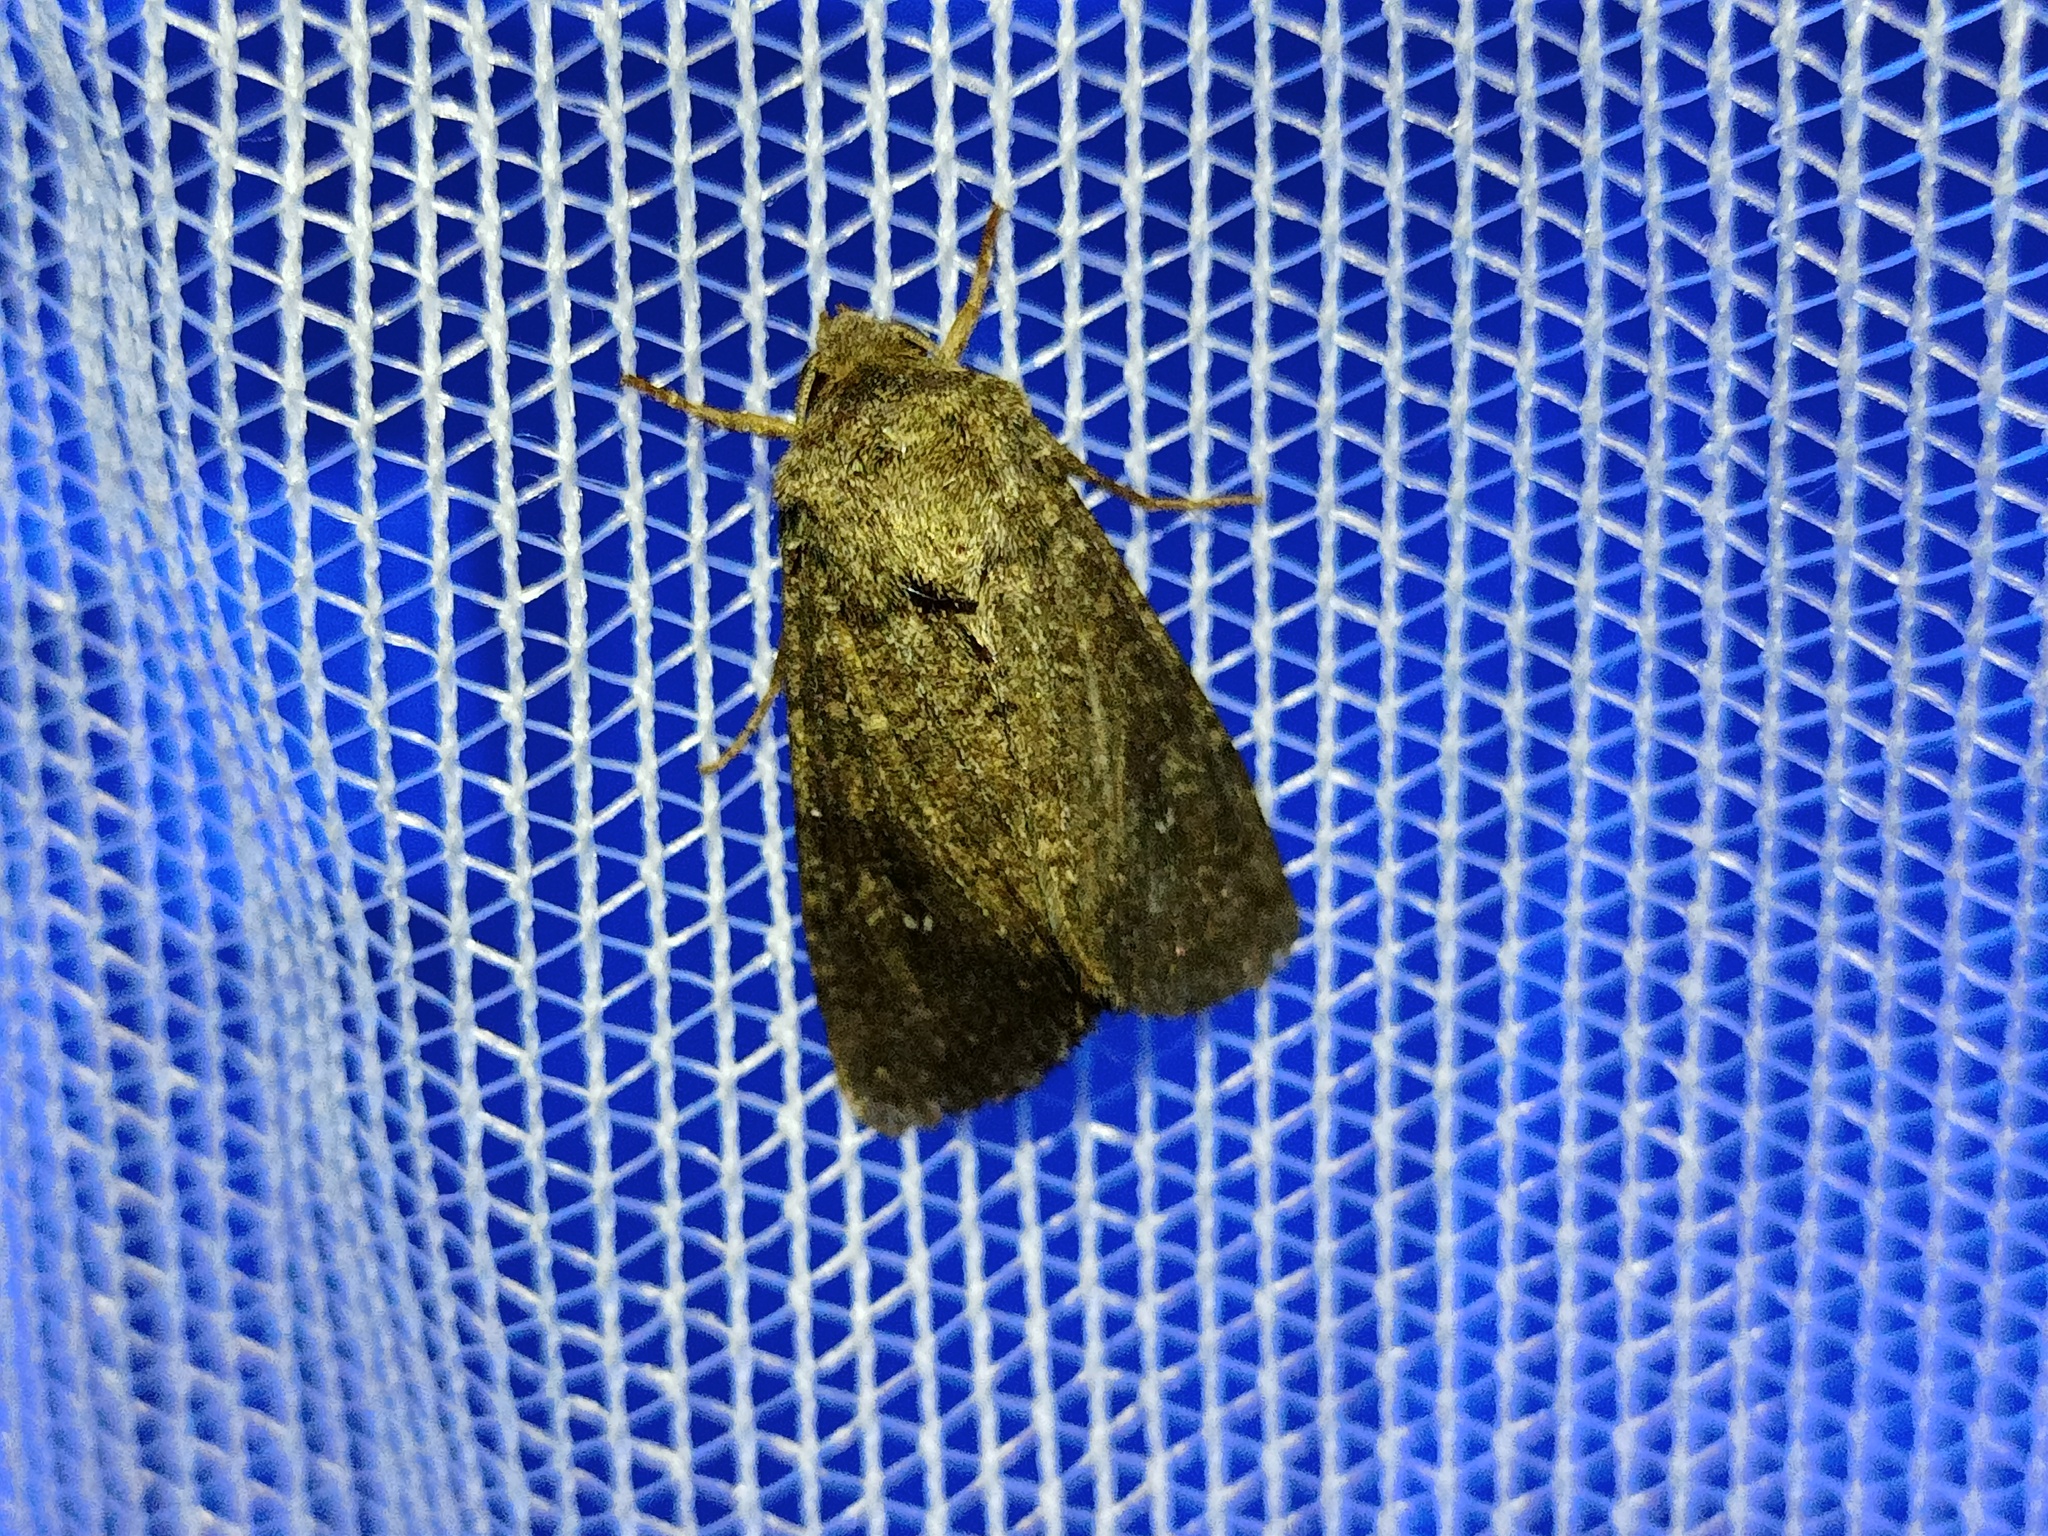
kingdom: Animalia
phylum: Arthropoda
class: Insecta
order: Lepidoptera
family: Noctuidae
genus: Sideridis
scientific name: Sideridis turbida
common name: White colon
